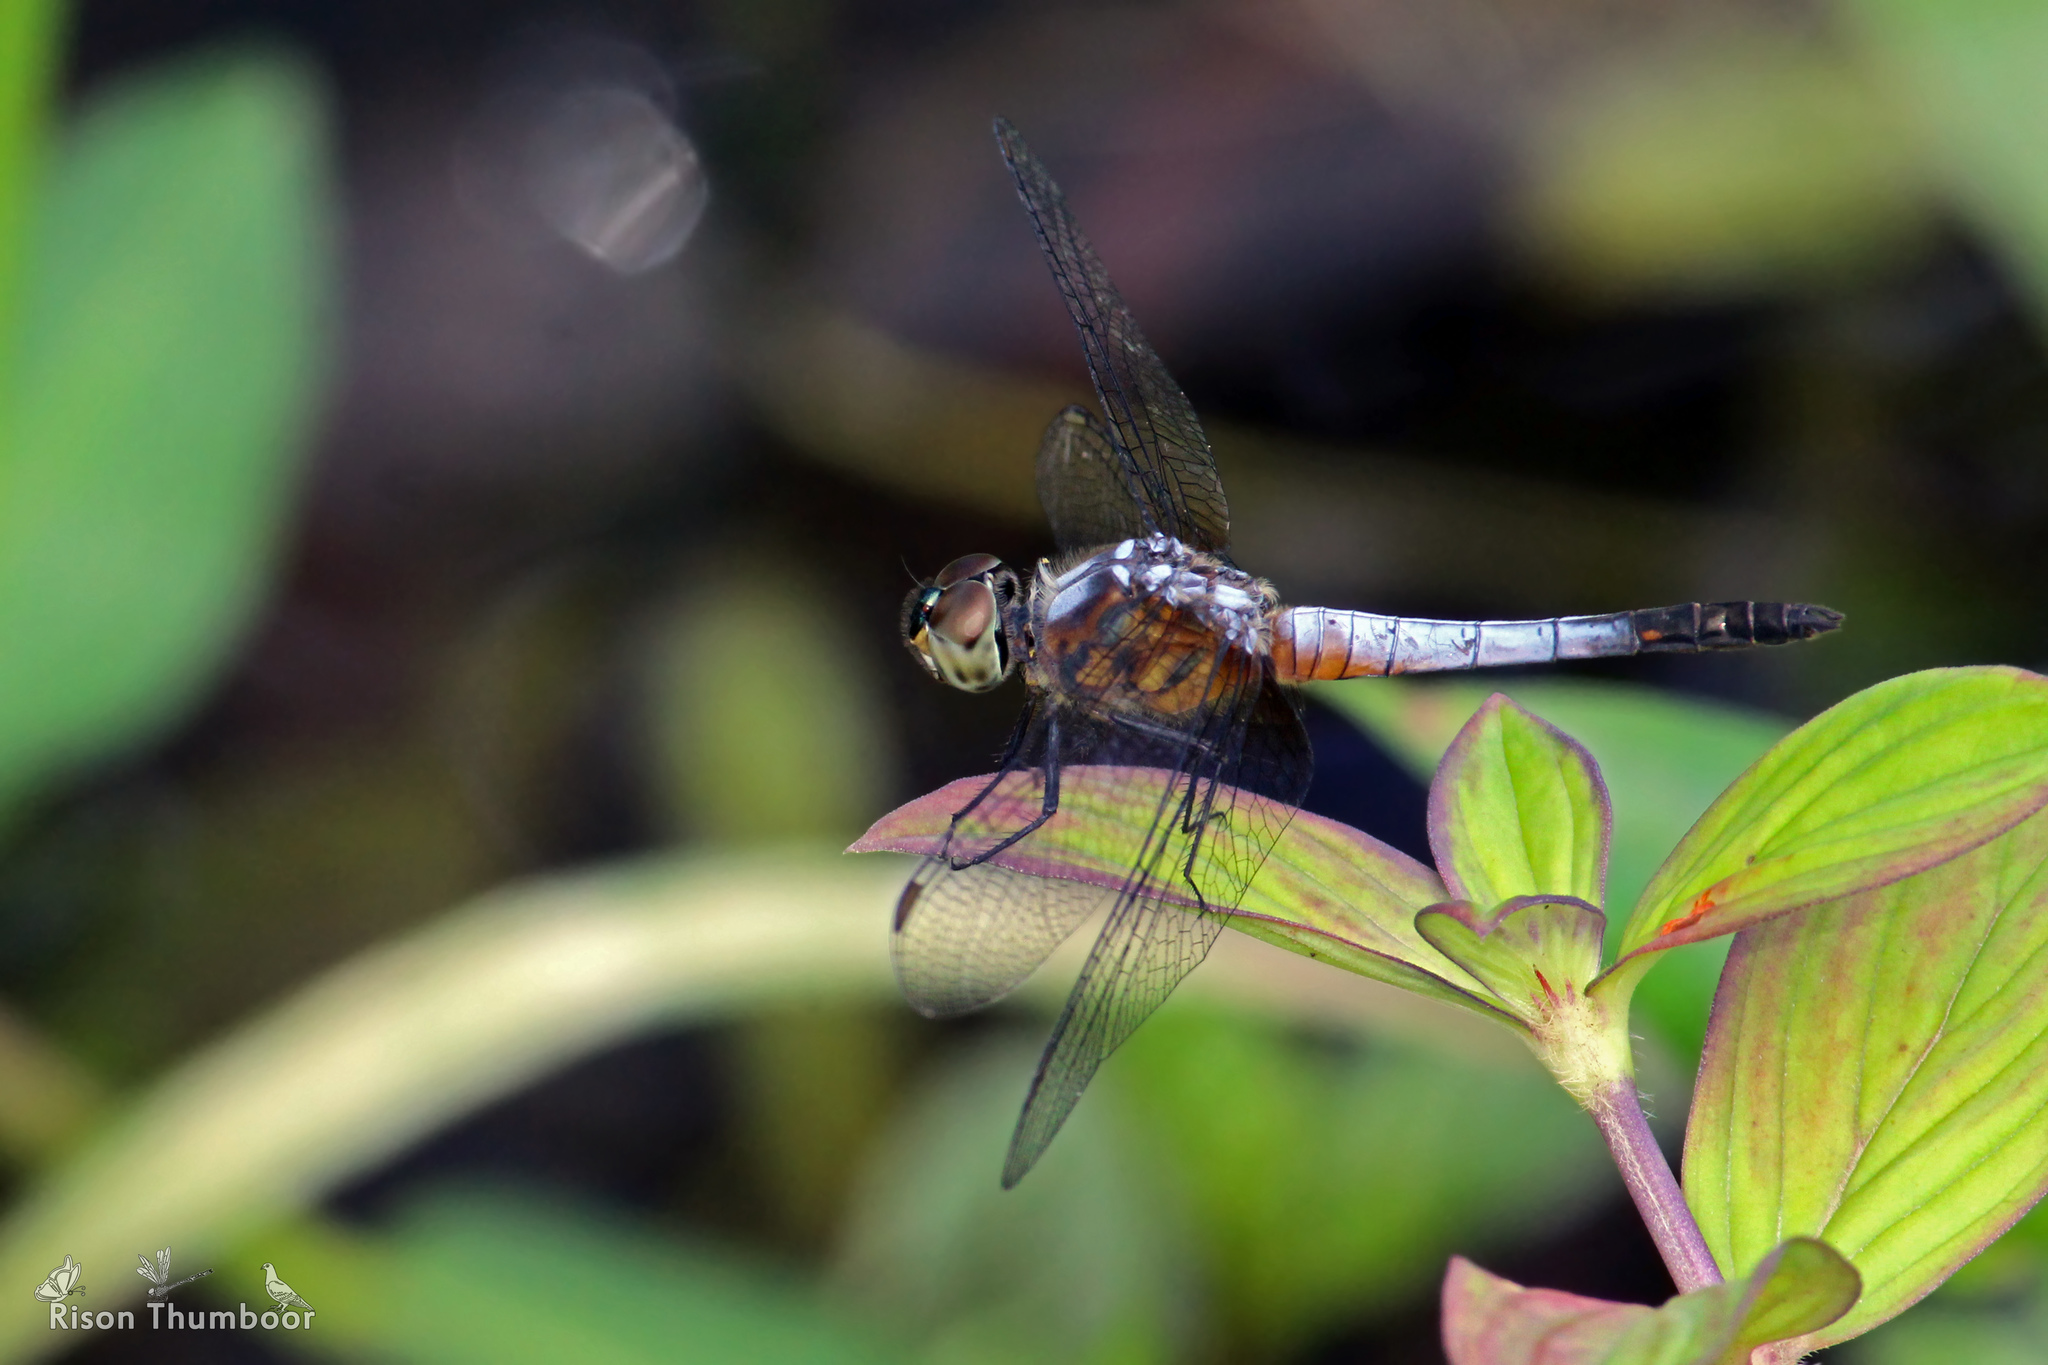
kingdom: Animalia
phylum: Arthropoda
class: Insecta
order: Odonata
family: Libellulidae
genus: Brachydiplax
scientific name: Brachydiplax chalybea
